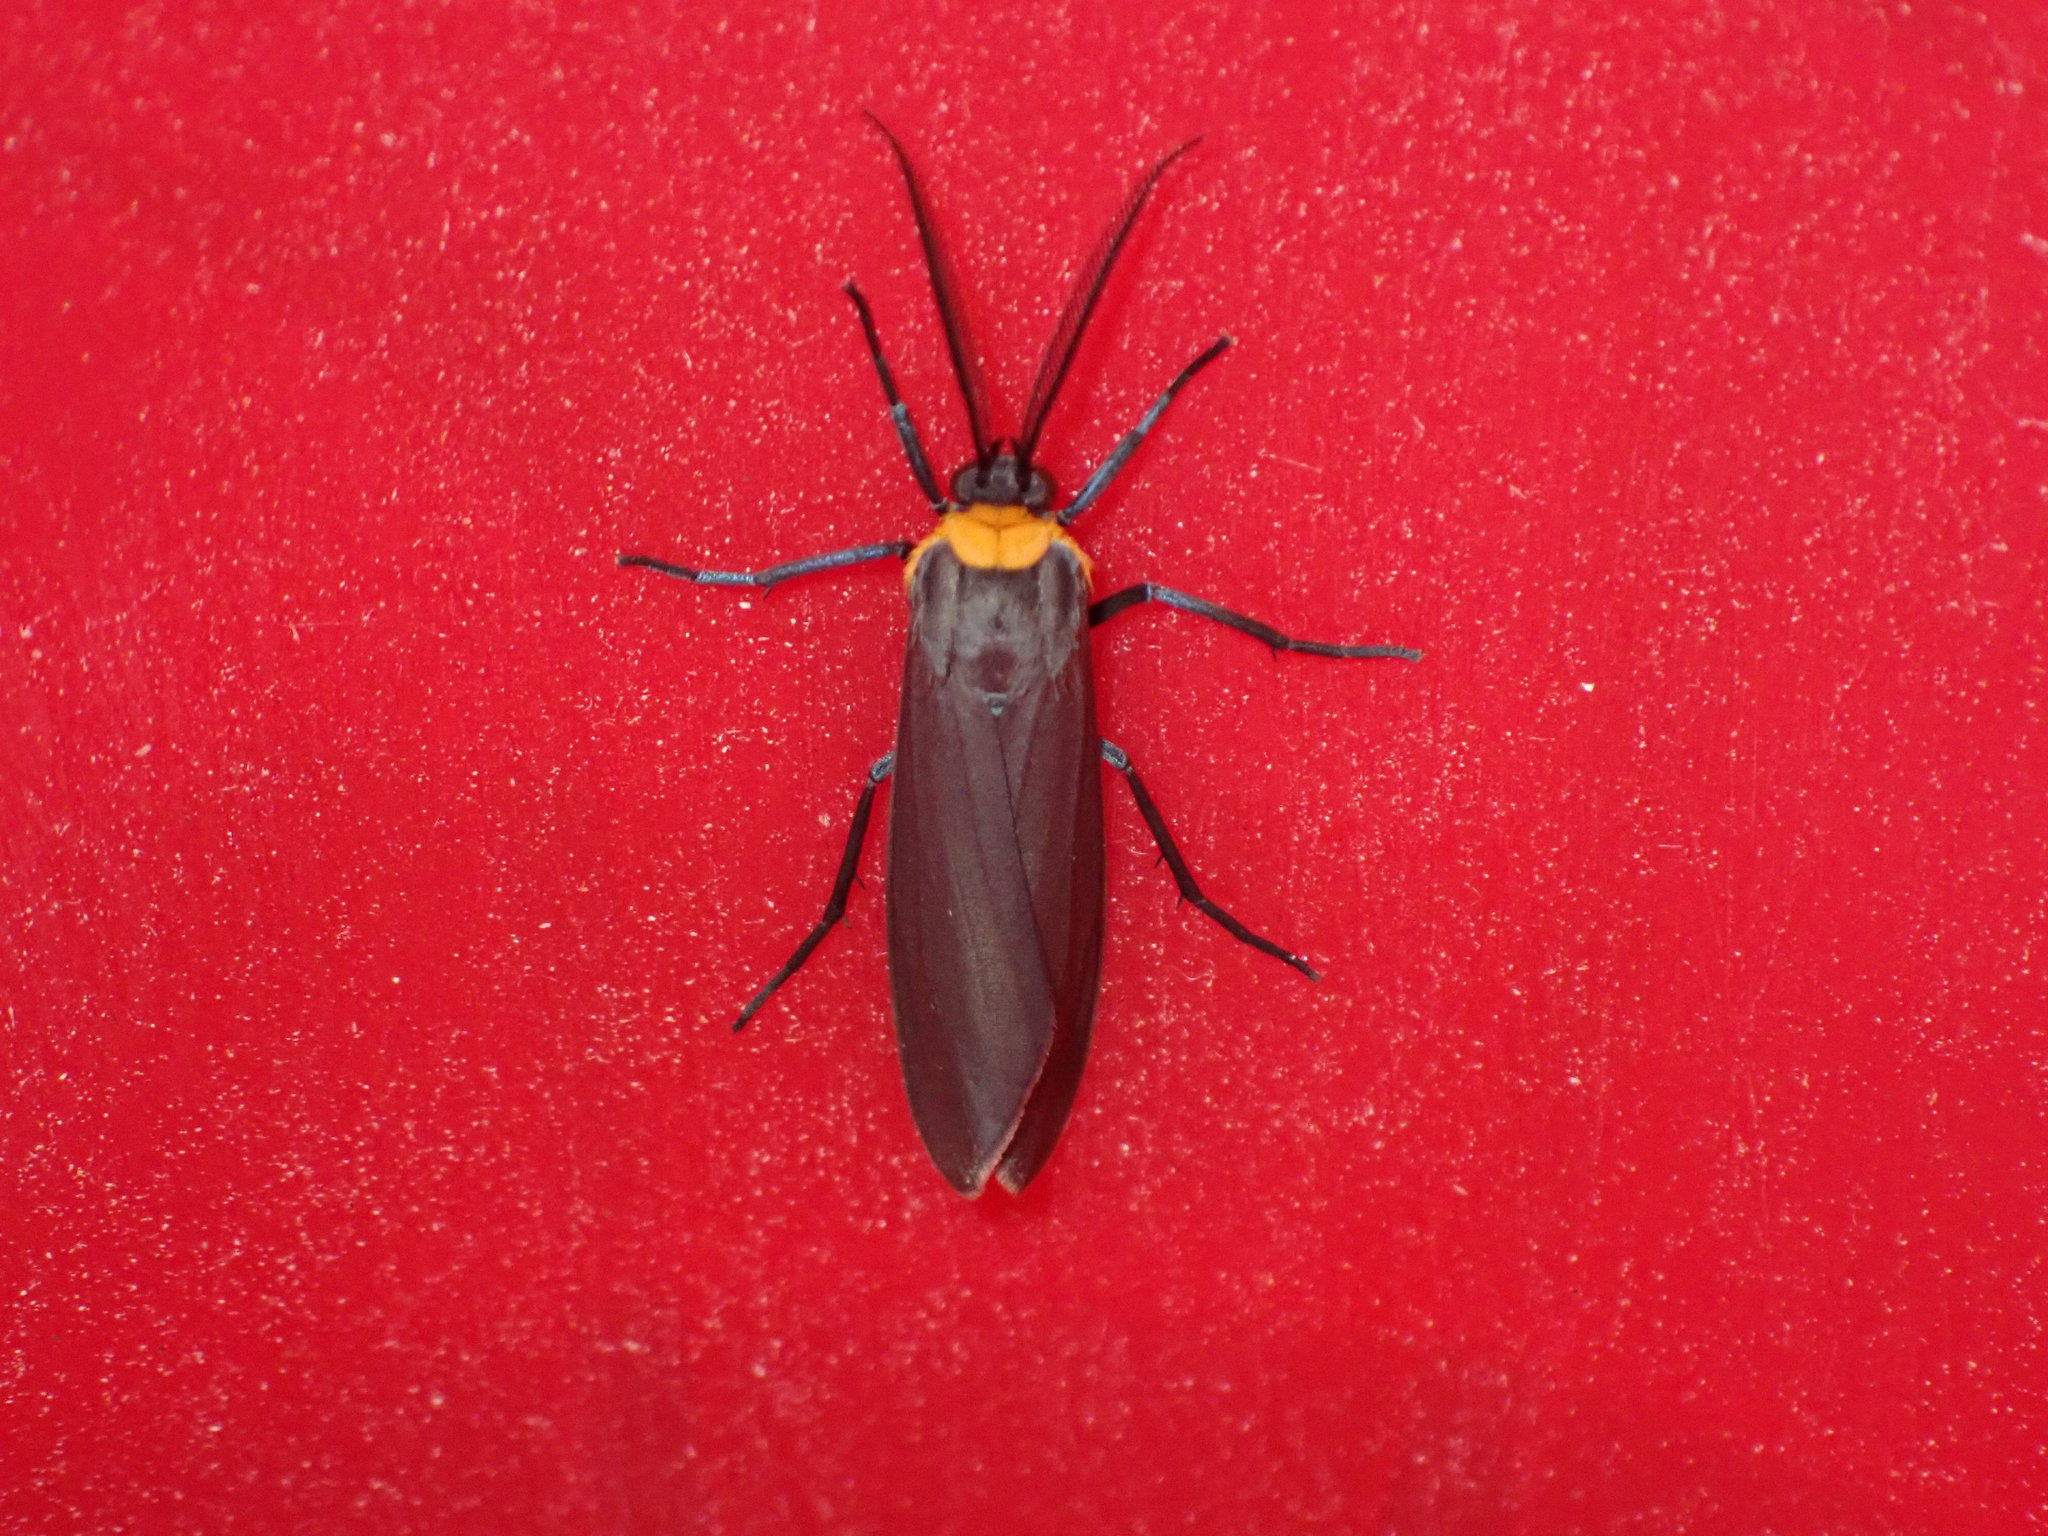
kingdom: Animalia
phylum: Arthropoda
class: Insecta
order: Lepidoptera
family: Erebidae
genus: Cisseps
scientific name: Cisseps fulvicollis
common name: Yellow-collared scape moth
